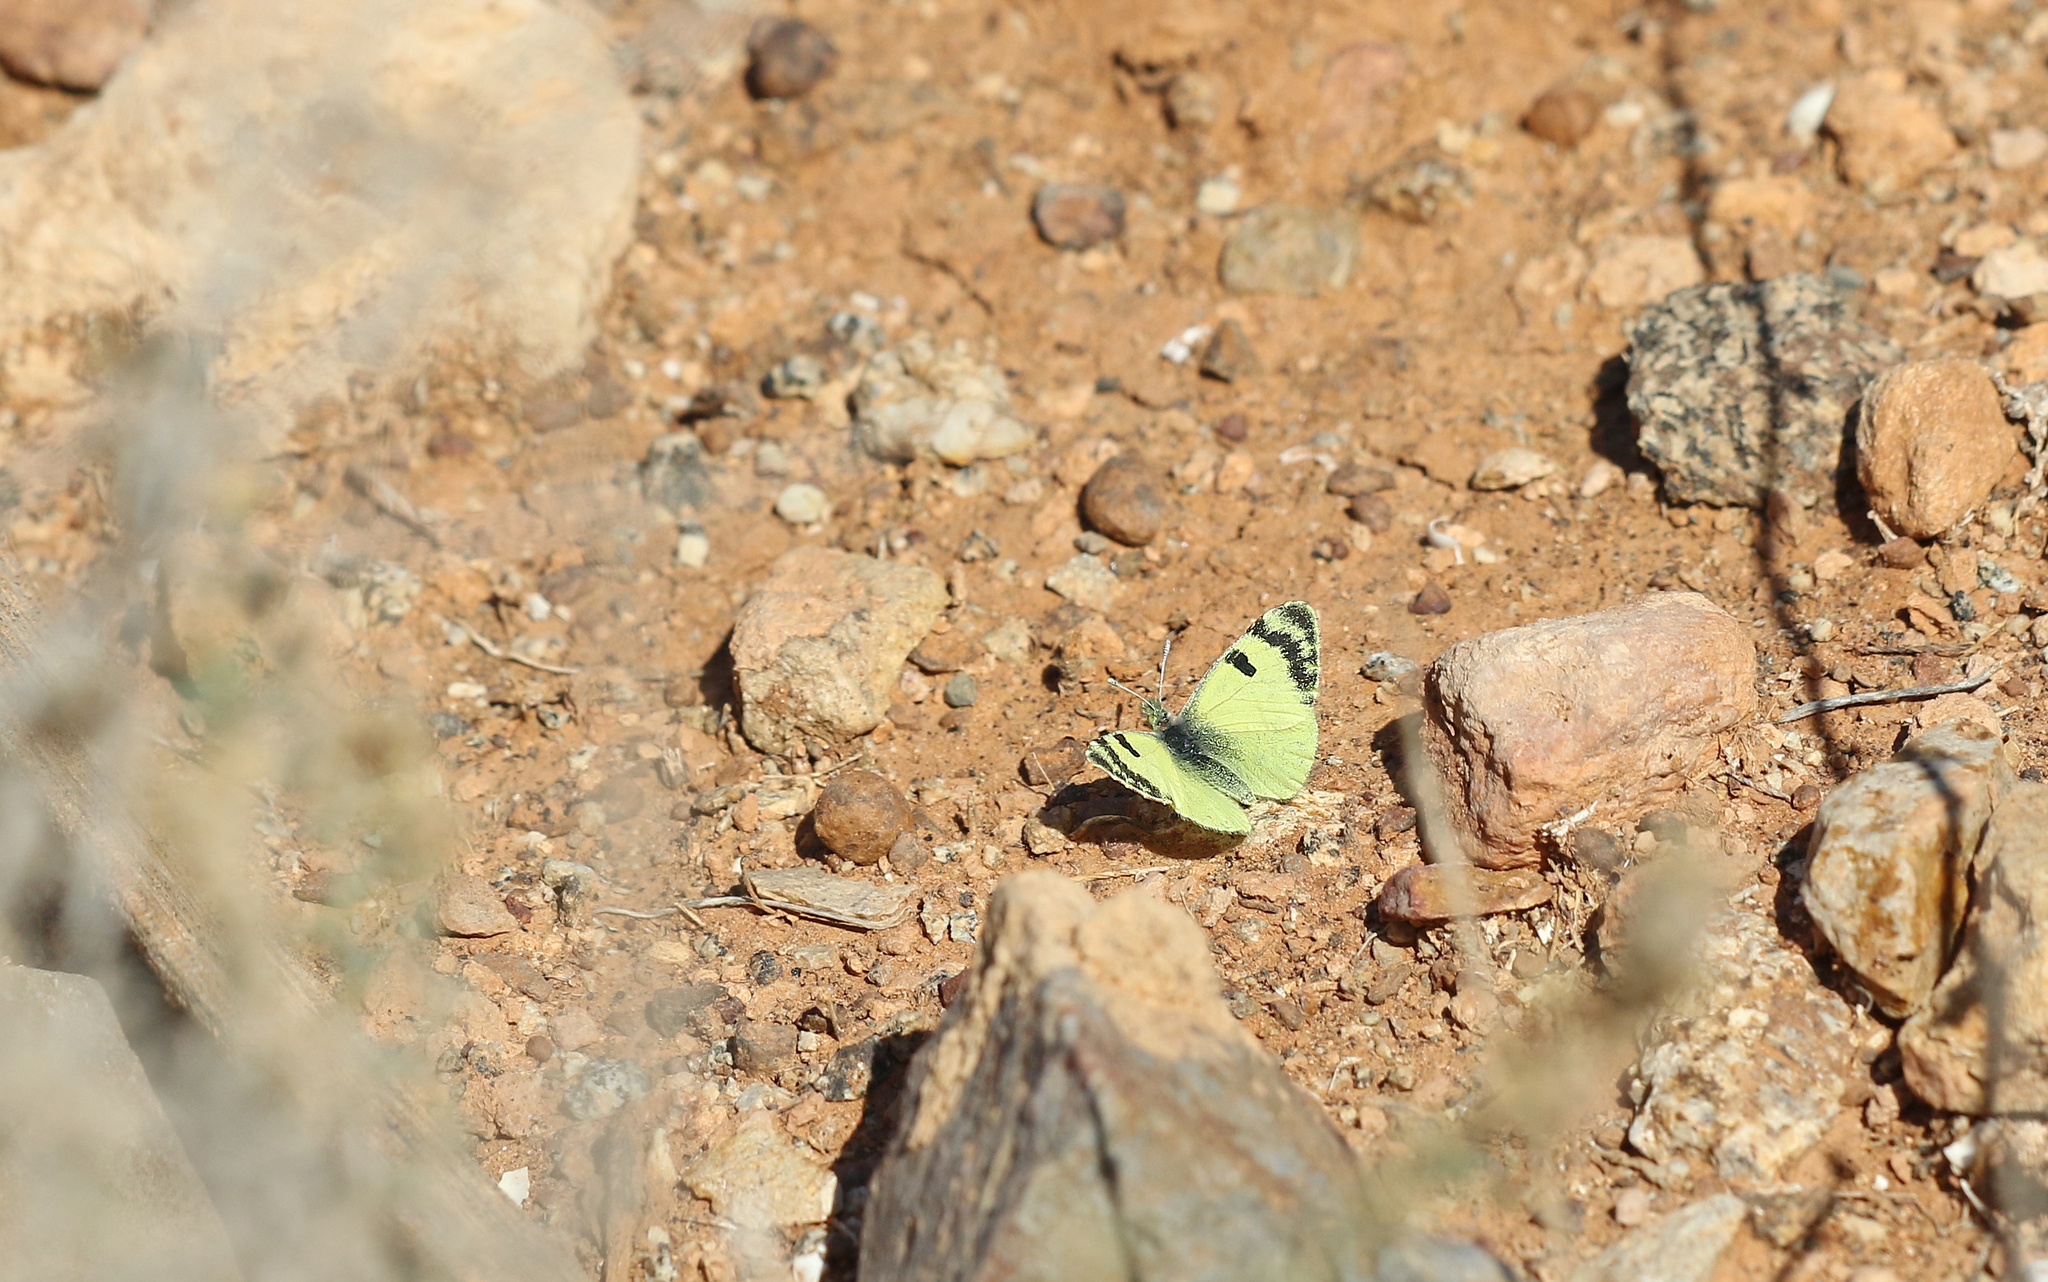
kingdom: Animalia
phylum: Arthropoda
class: Insecta
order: Lepidoptera
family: Pieridae
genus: Elphinstonia
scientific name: Elphinstonia charlonia
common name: Greenish black-tip
